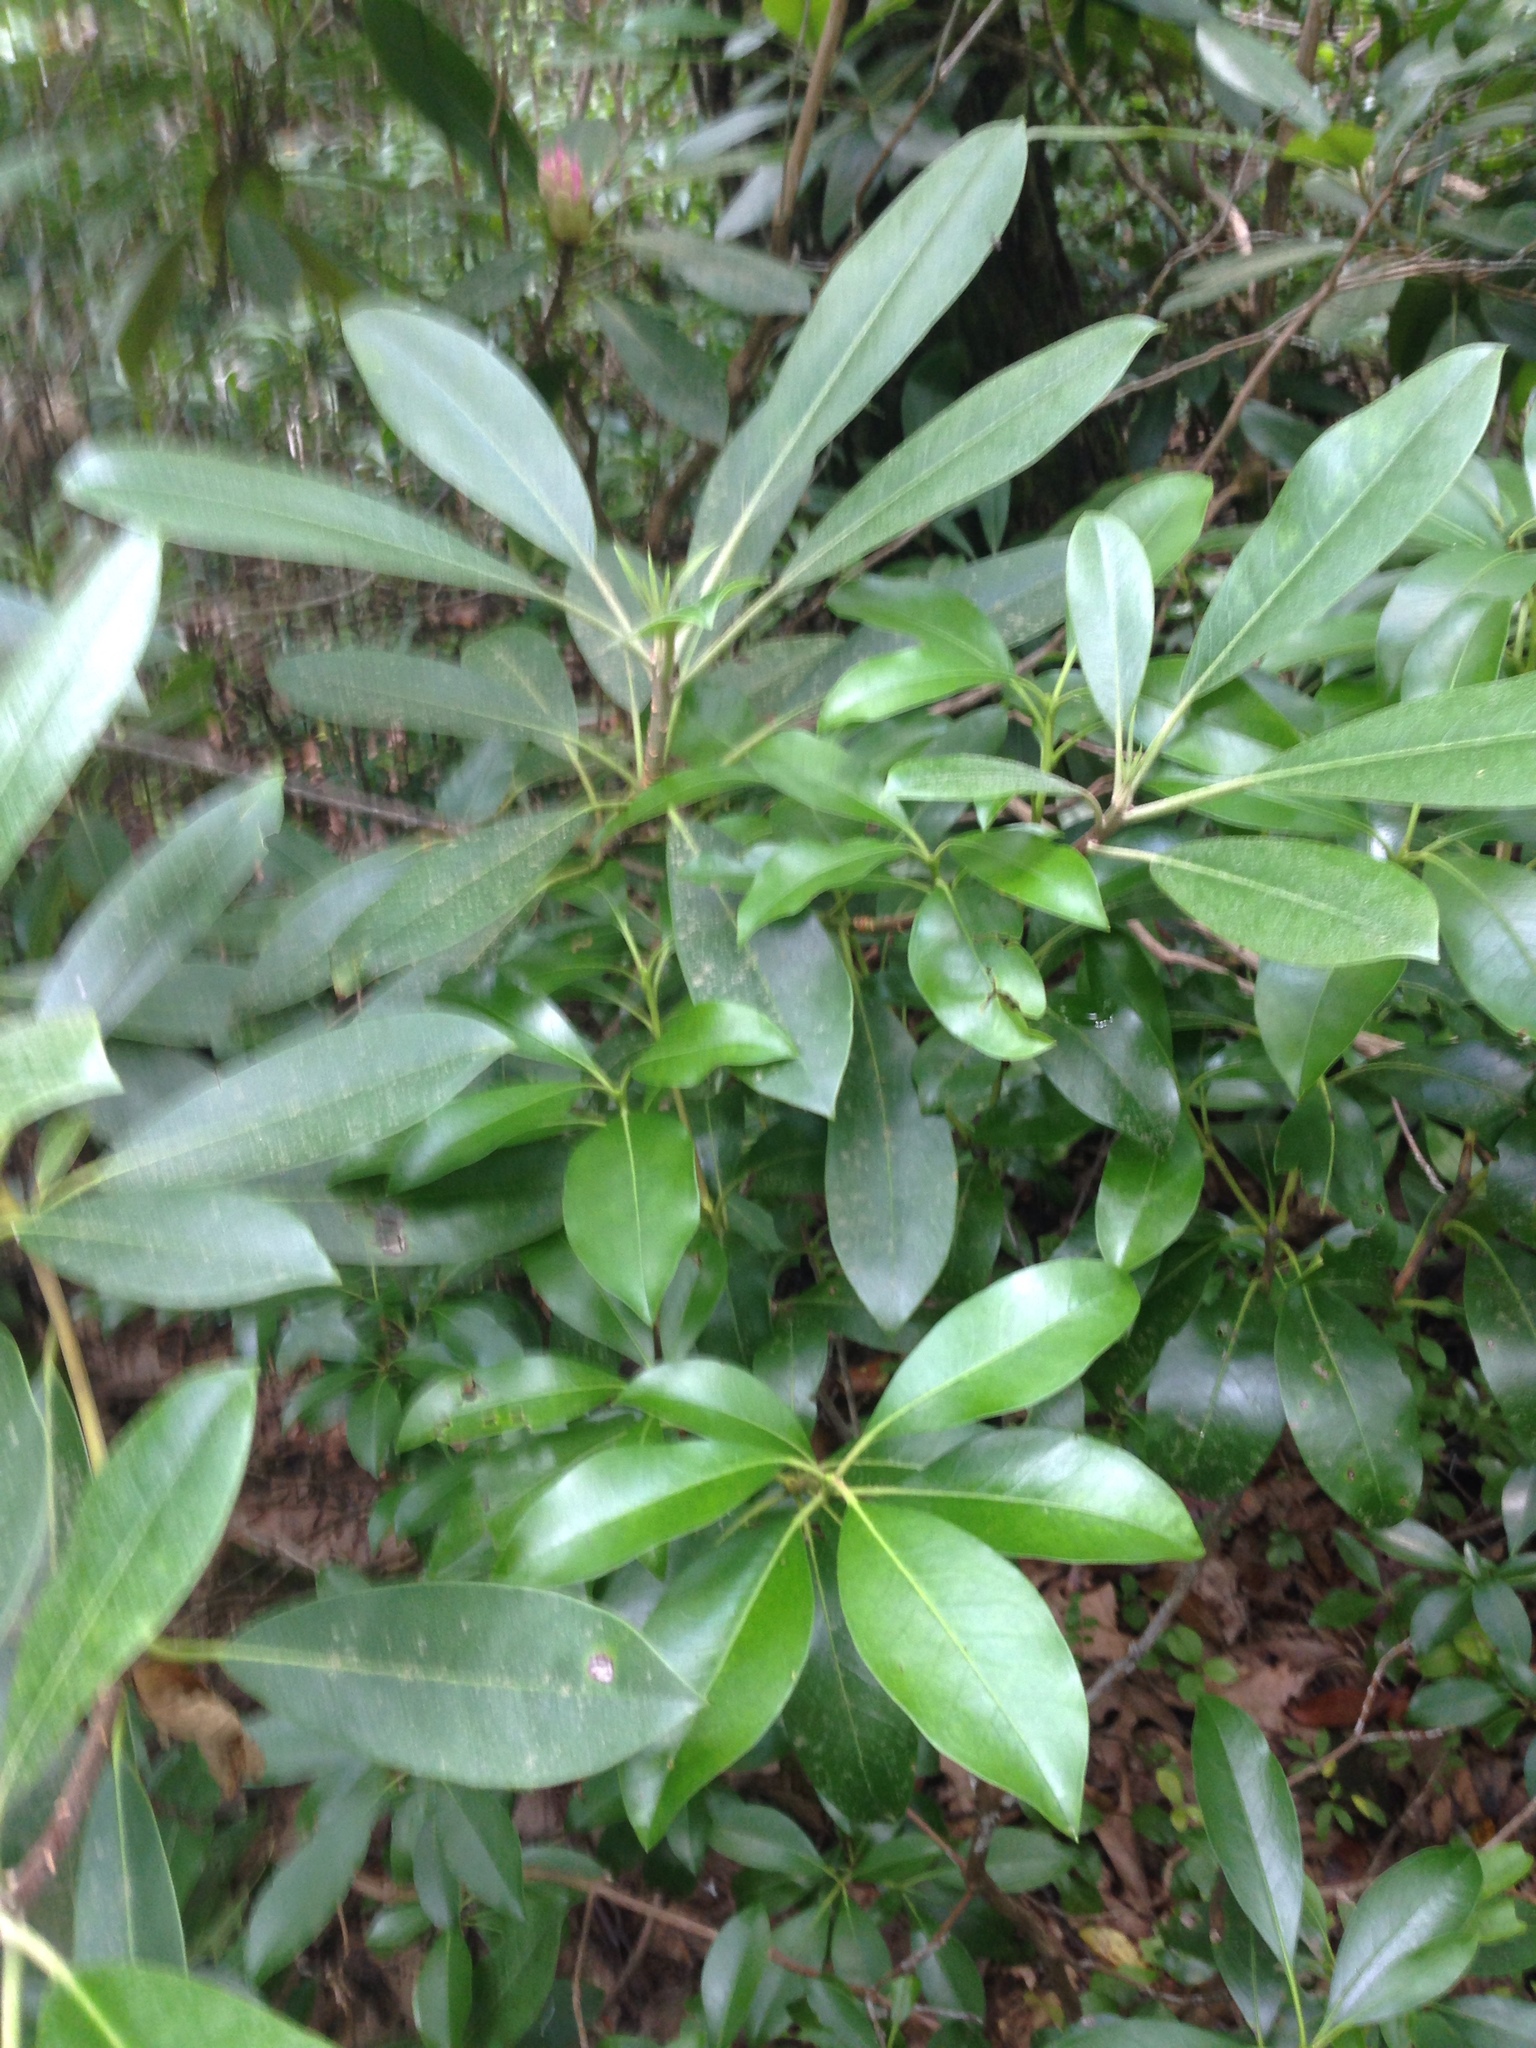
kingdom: Plantae
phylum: Tracheophyta
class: Magnoliopsida
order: Ericales
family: Ericaceae
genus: Rhododendron
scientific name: Rhododendron maximum
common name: Great rhododendron
